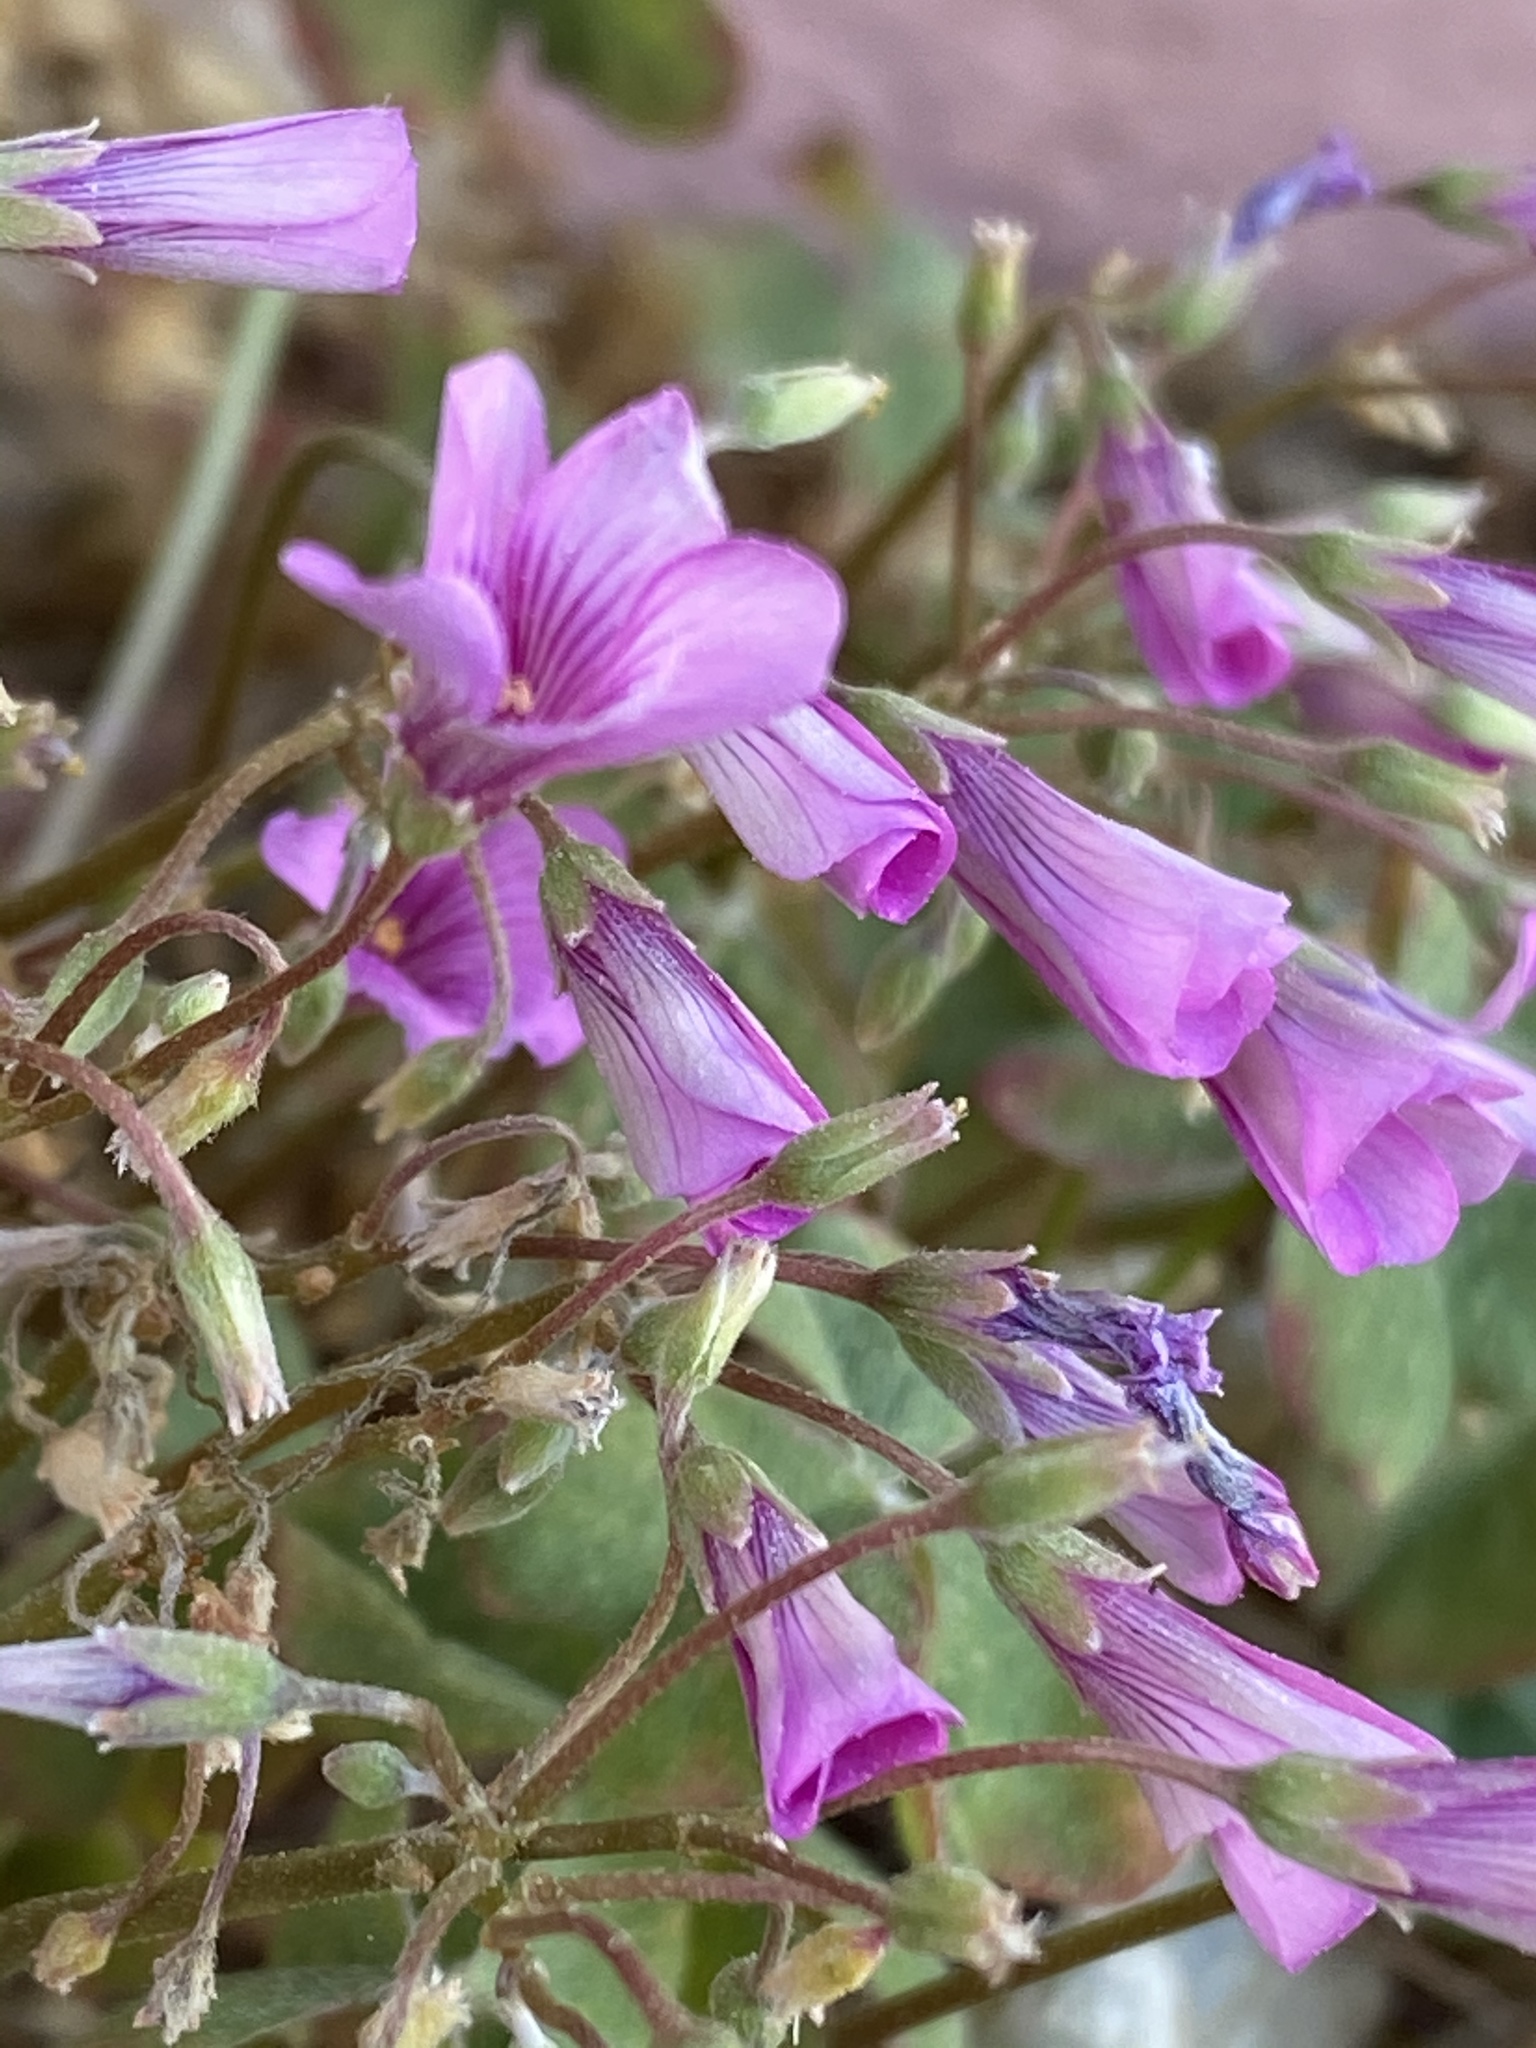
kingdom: Plantae
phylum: Tracheophyta
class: Magnoliopsida
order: Oxalidales
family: Oxalidaceae
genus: Oxalis
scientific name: Oxalis articulata
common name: Pink-sorrel
